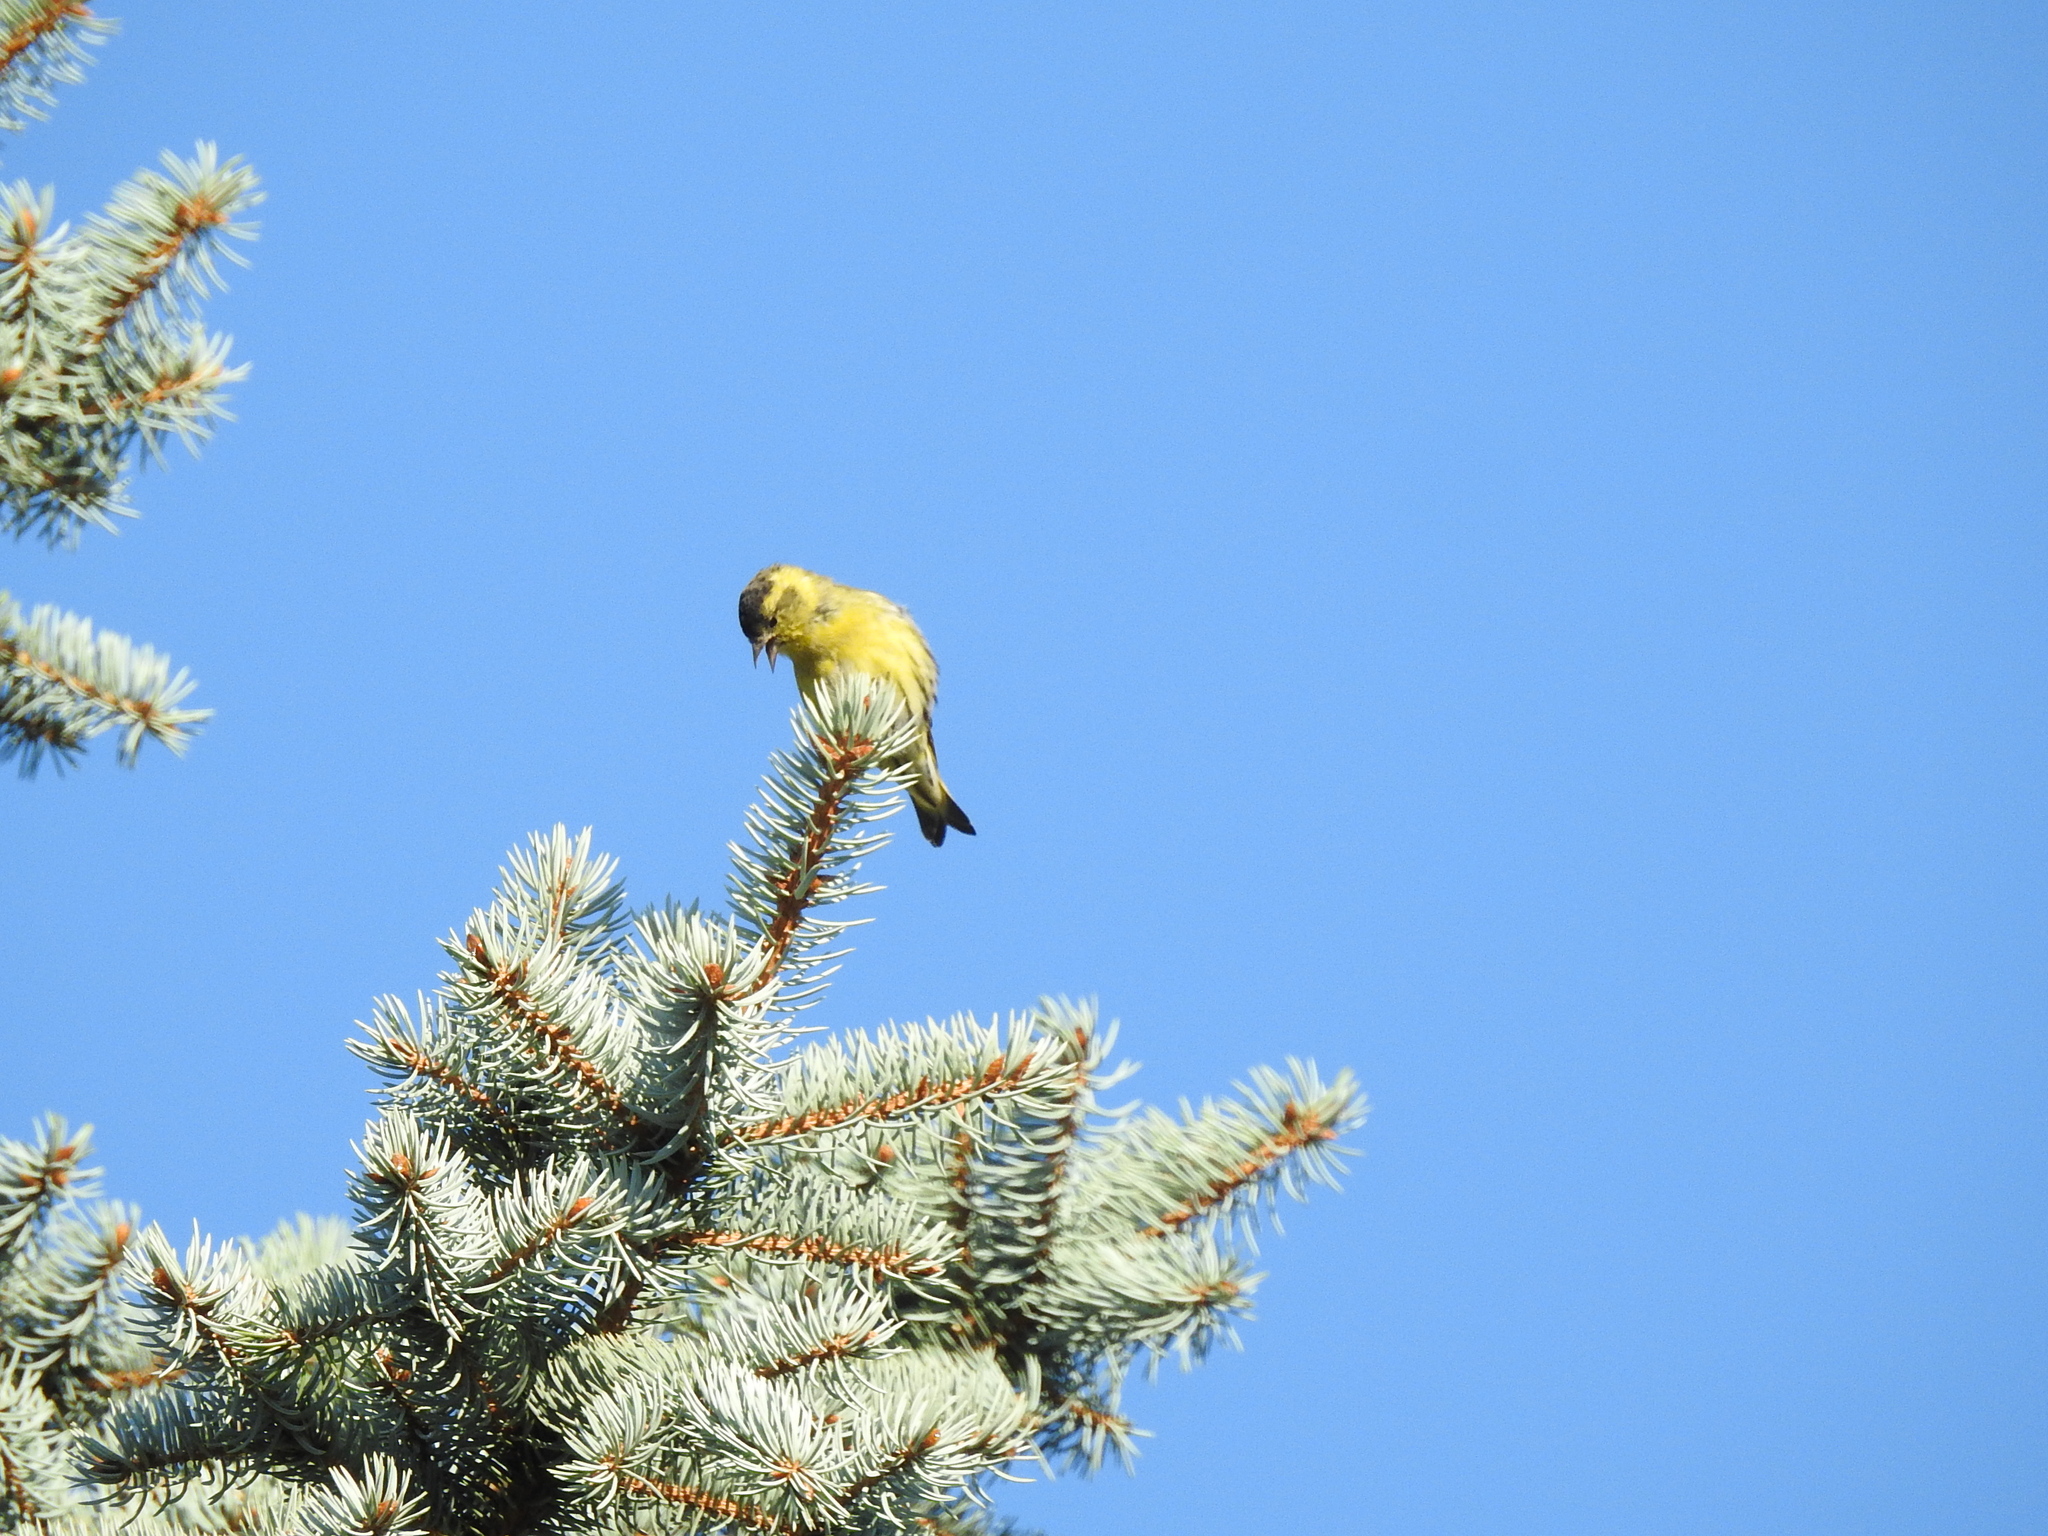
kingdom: Animalia
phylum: Chordata
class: Aves
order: Passeriformes
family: Fringillidae
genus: Spinus
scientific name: Spinus spinus
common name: Eurasian siskin
